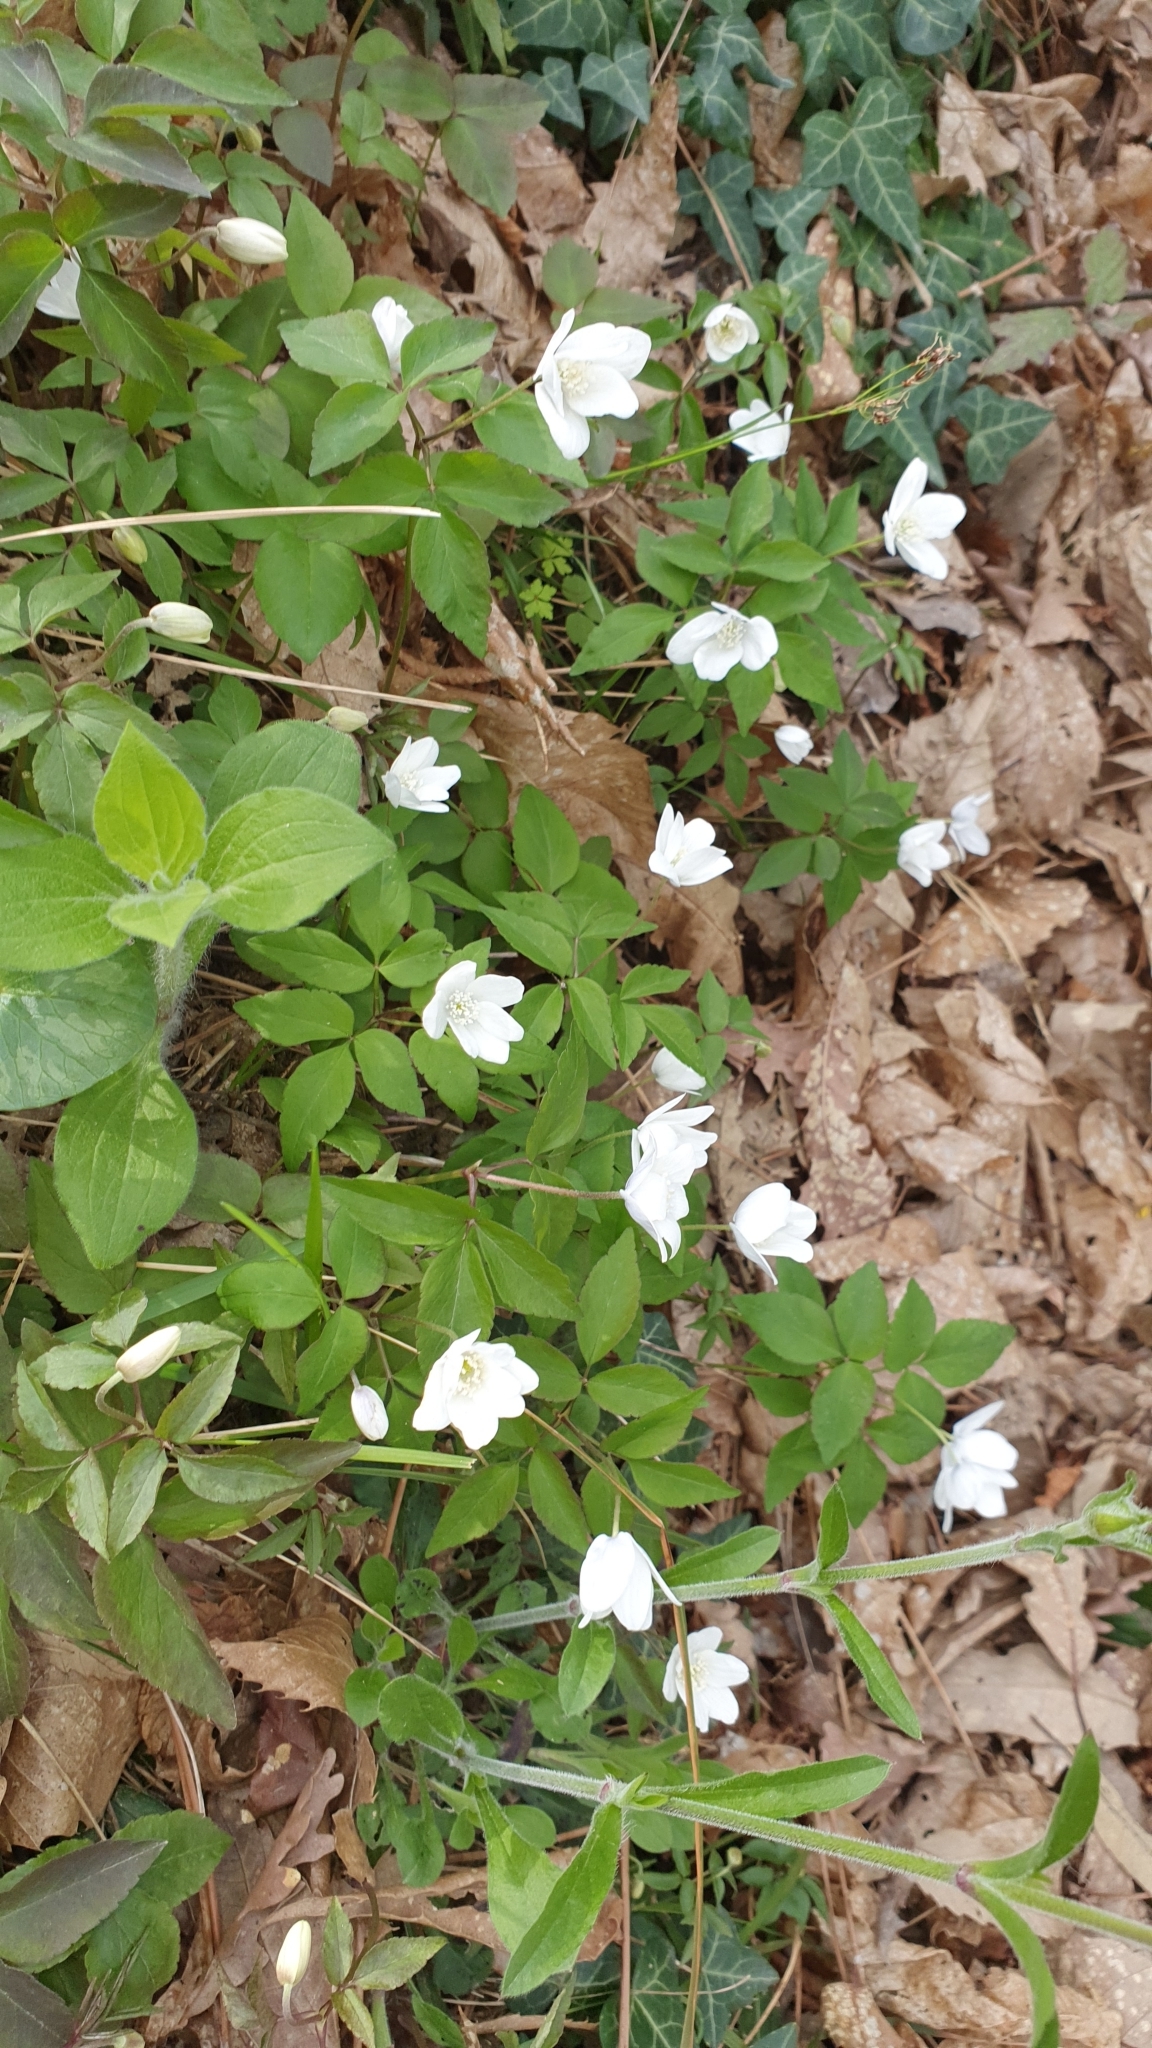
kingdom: Plantae
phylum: Tracheophyta
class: Magnoliopsida
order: Ranunculales
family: Ranunculaceae
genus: Anemone
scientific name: Anemone trifolia
